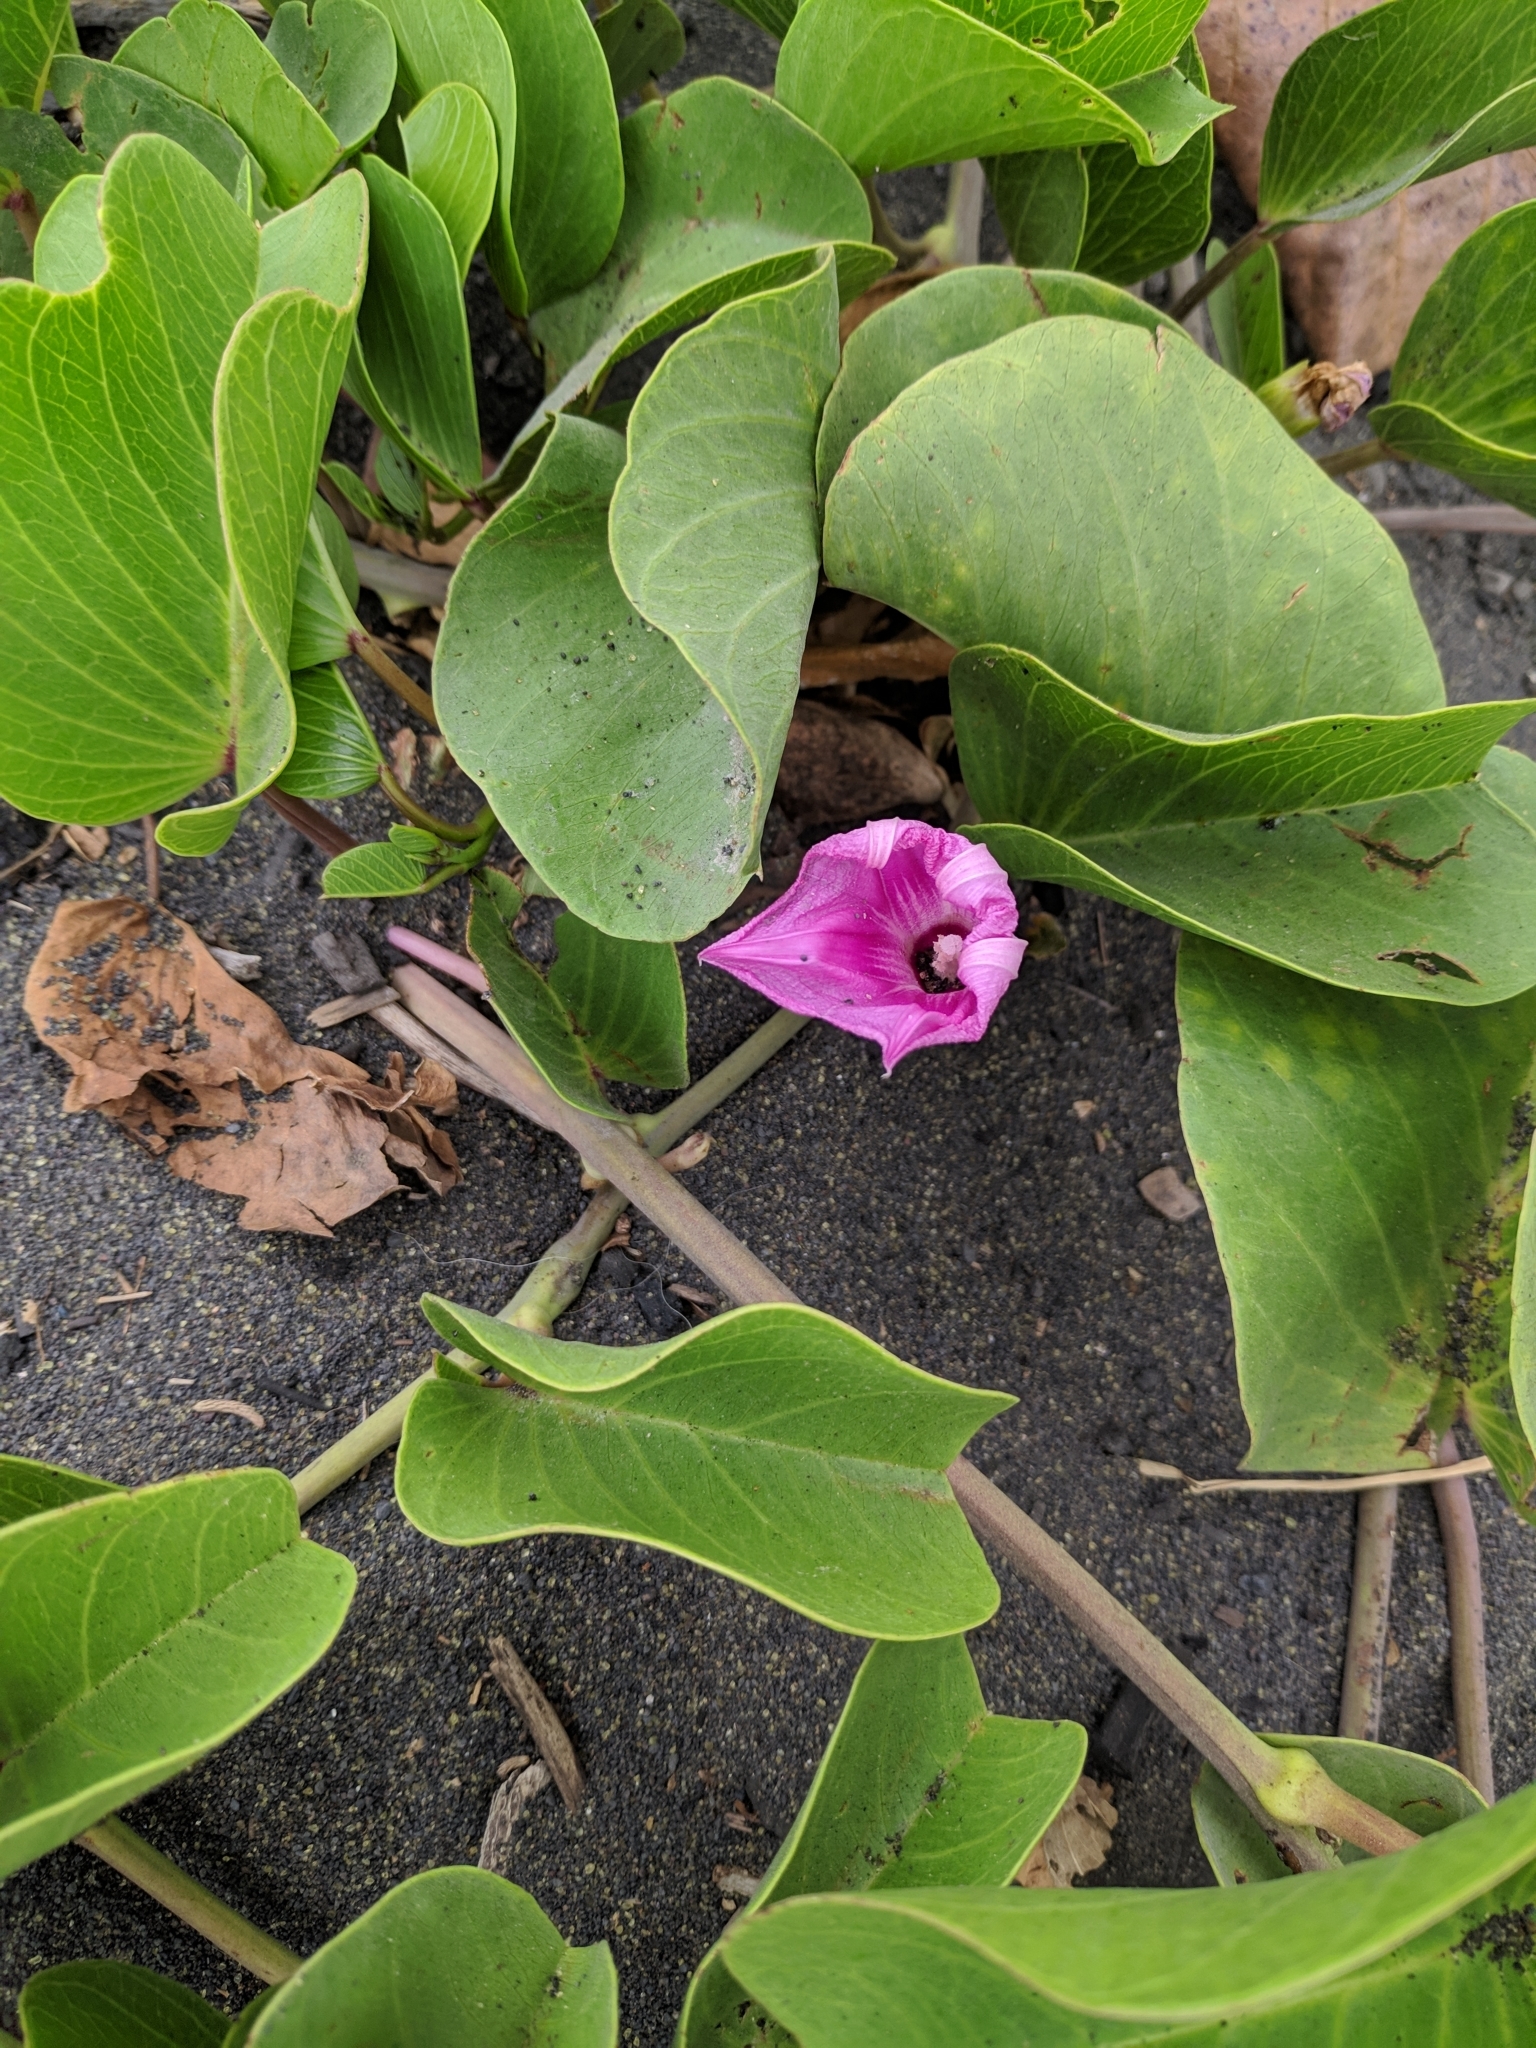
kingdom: Plantae
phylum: Tracheophyta
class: Magnoliopsida
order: Solanales
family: Convolvulaceae
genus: Ipomoea
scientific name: Ipomoea pes-caprae
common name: Beach morning glory
